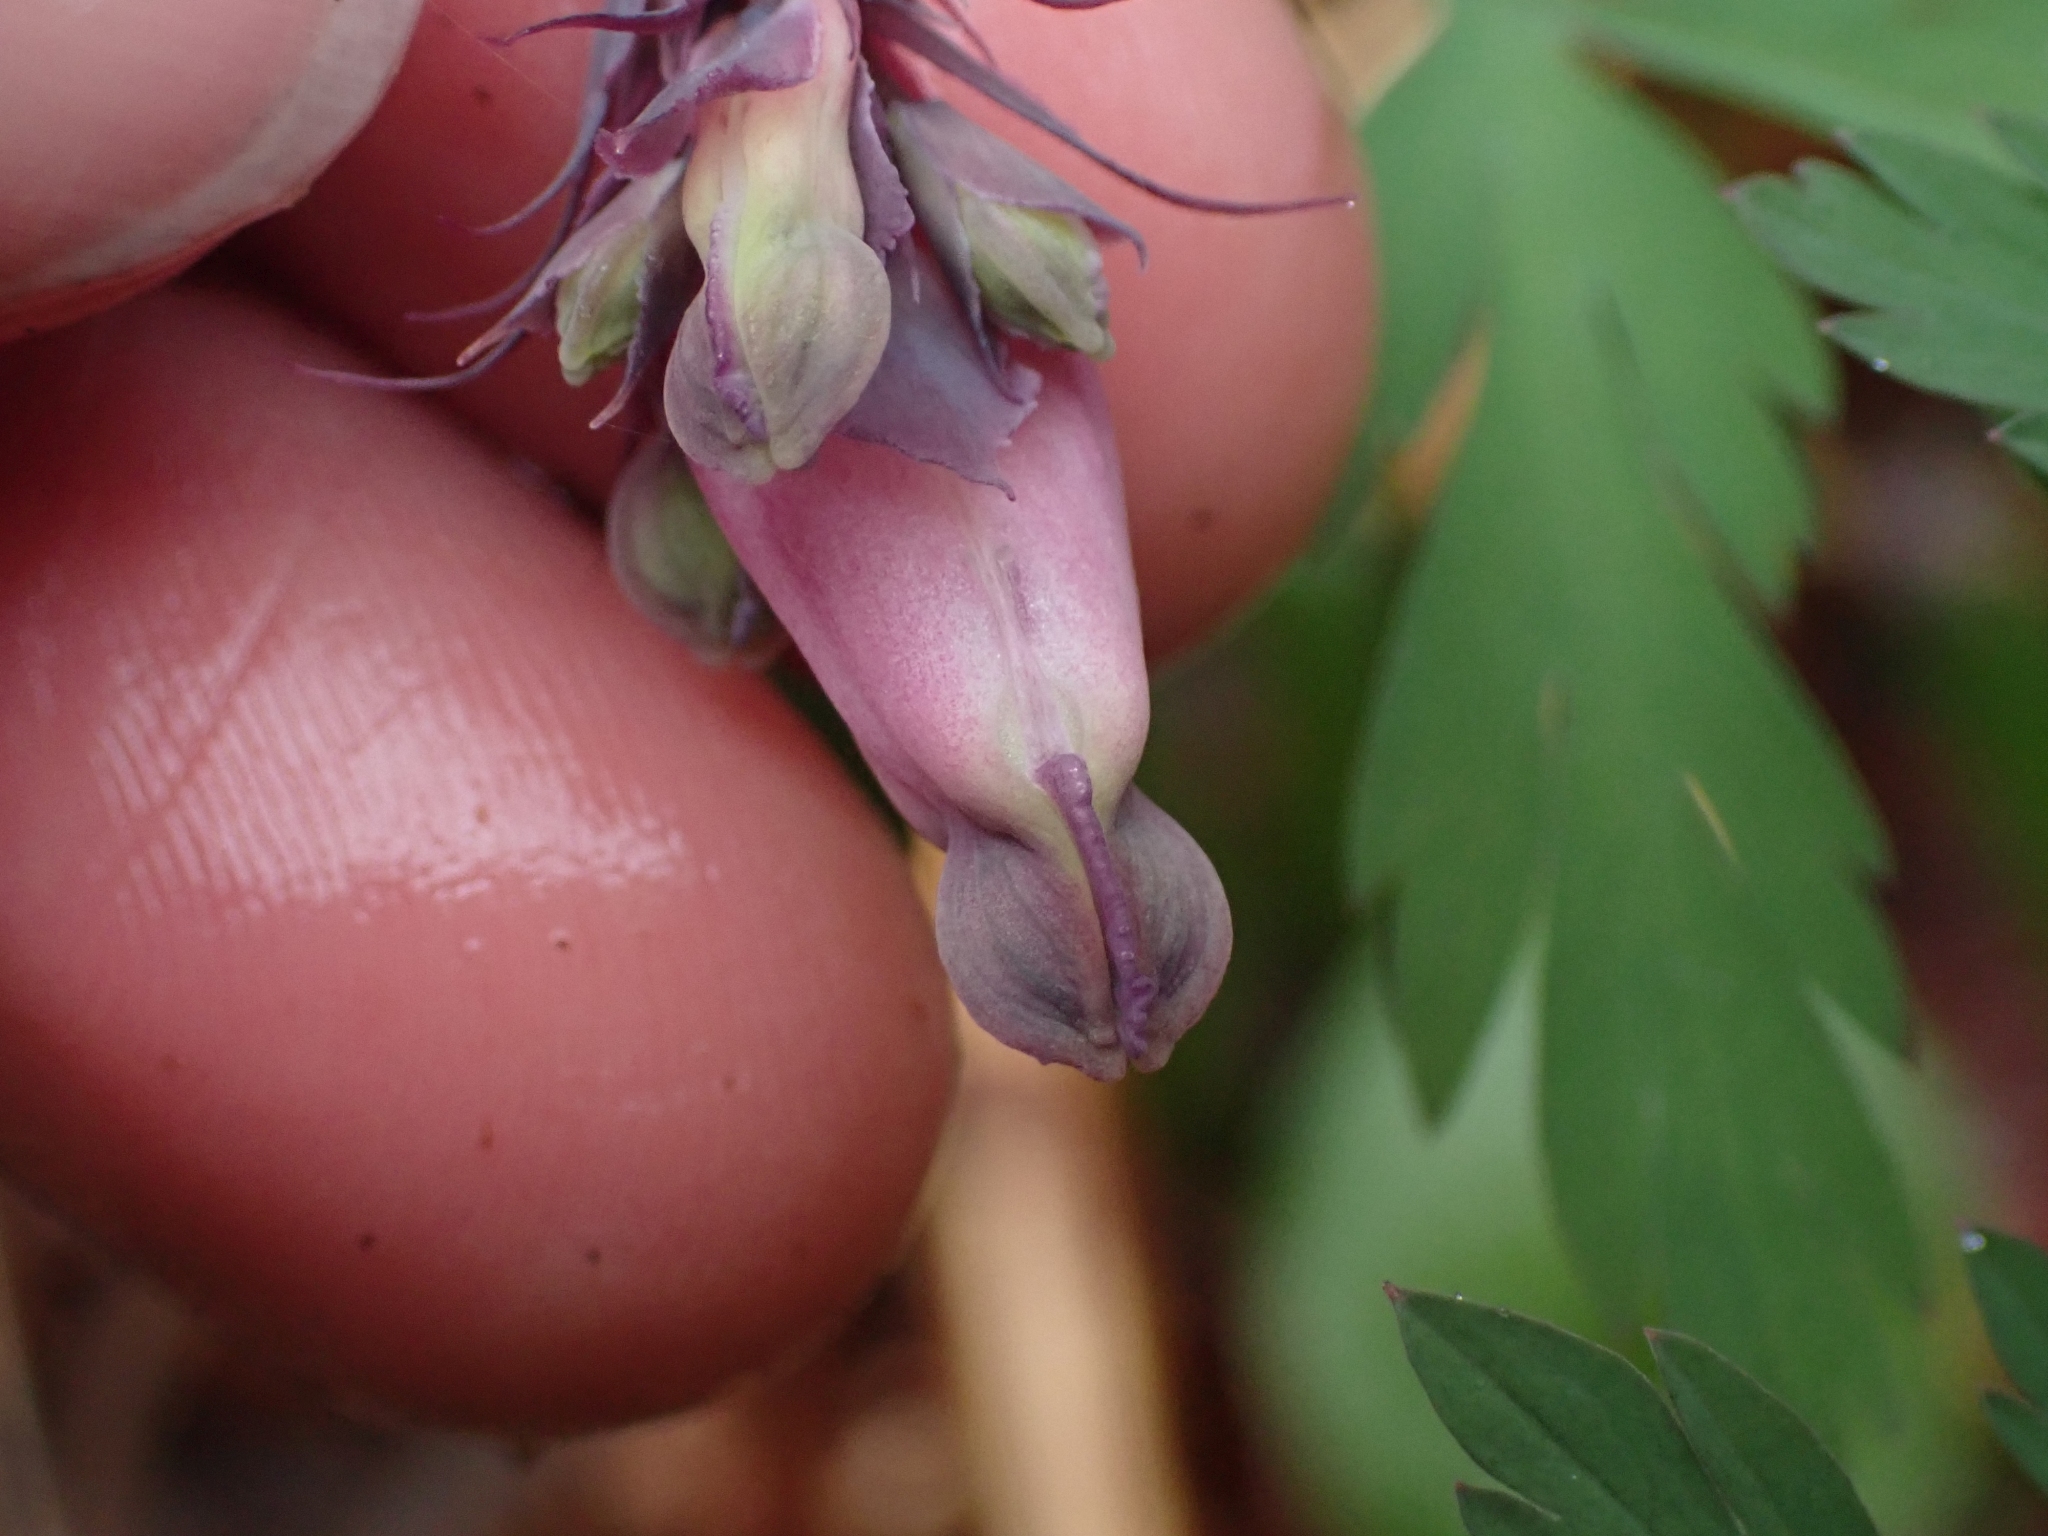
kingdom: Plantae
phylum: Tracheophyta
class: Magnoliopsida
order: Ranunculales
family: Papaveraceae
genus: Dicentra
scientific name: Dicentra formosa
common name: Bleeding-heart
